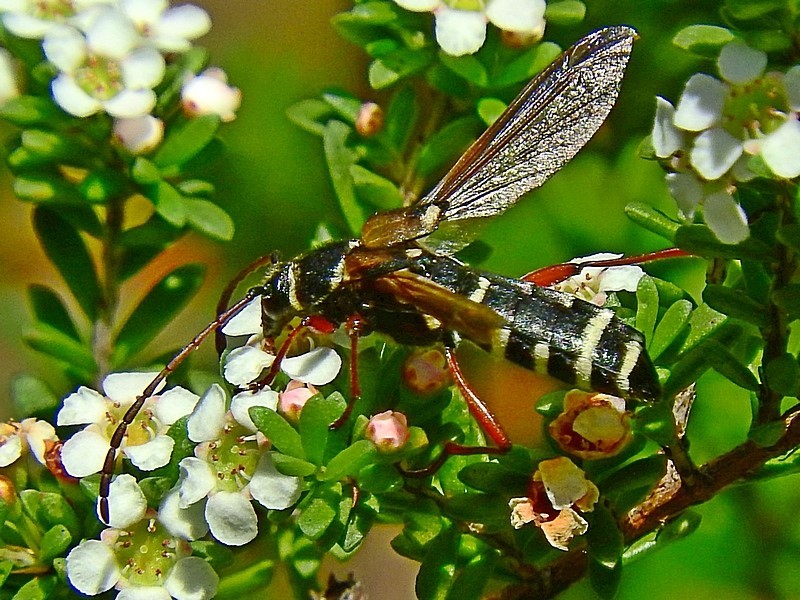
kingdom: Animalia
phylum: Arthropoda
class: Insecta
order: Coleoptera
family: Cerambycidae
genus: Hesthesis
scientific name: Hesthesis montana
